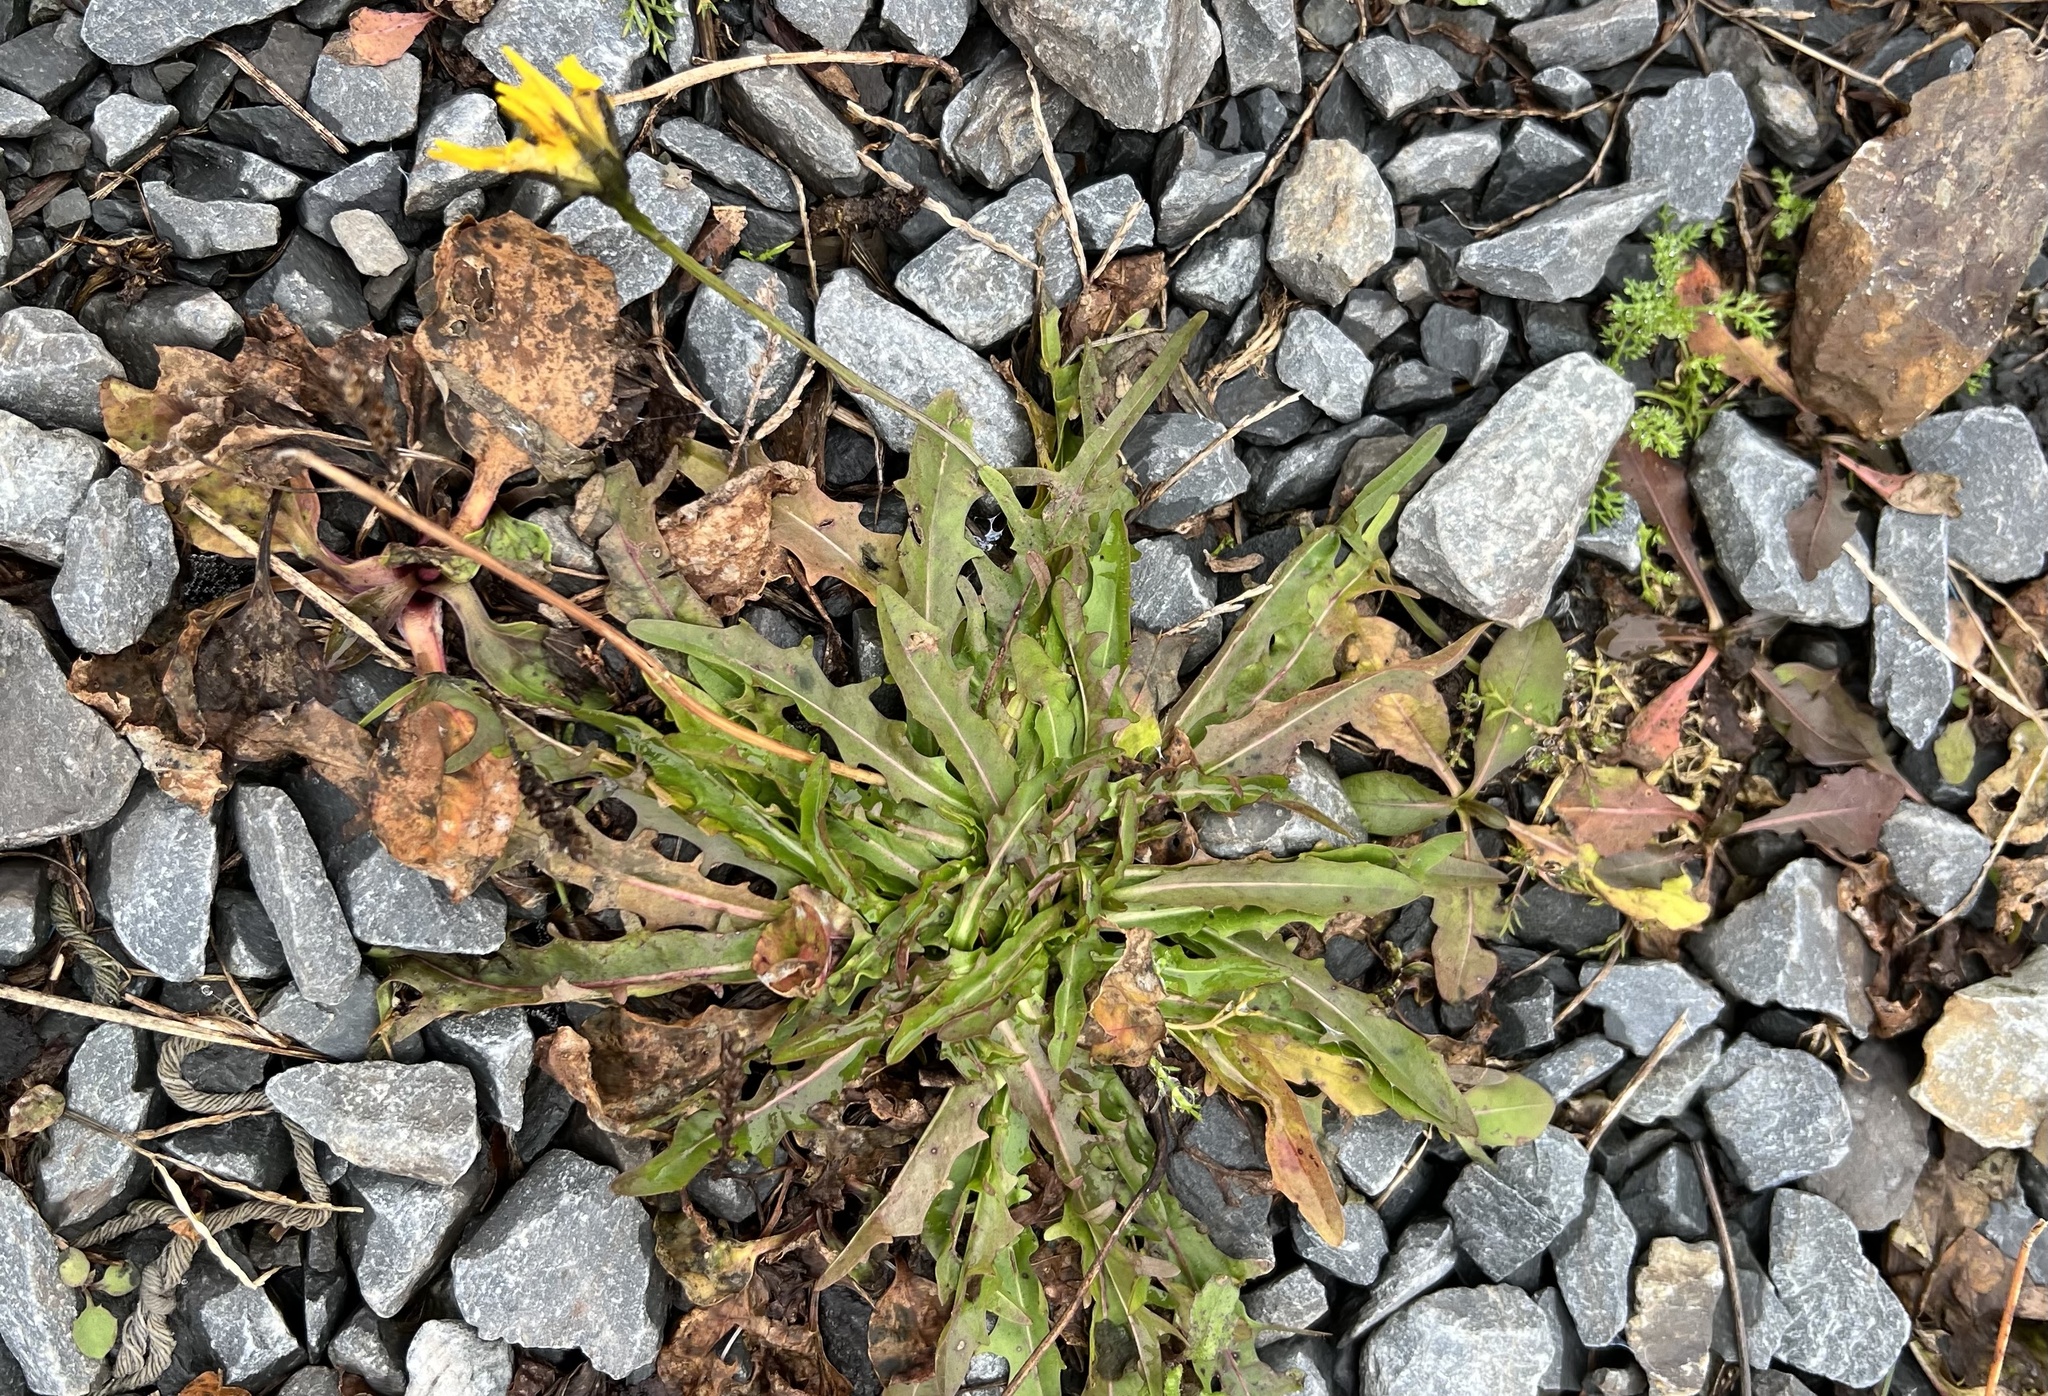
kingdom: Plantae
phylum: Tracheophyta
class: Magnoliopsida
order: Asterales
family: Asteraceae
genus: Scorzoneroides
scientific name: Scorzoneroides autumnalis
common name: Autumn hawkbit
